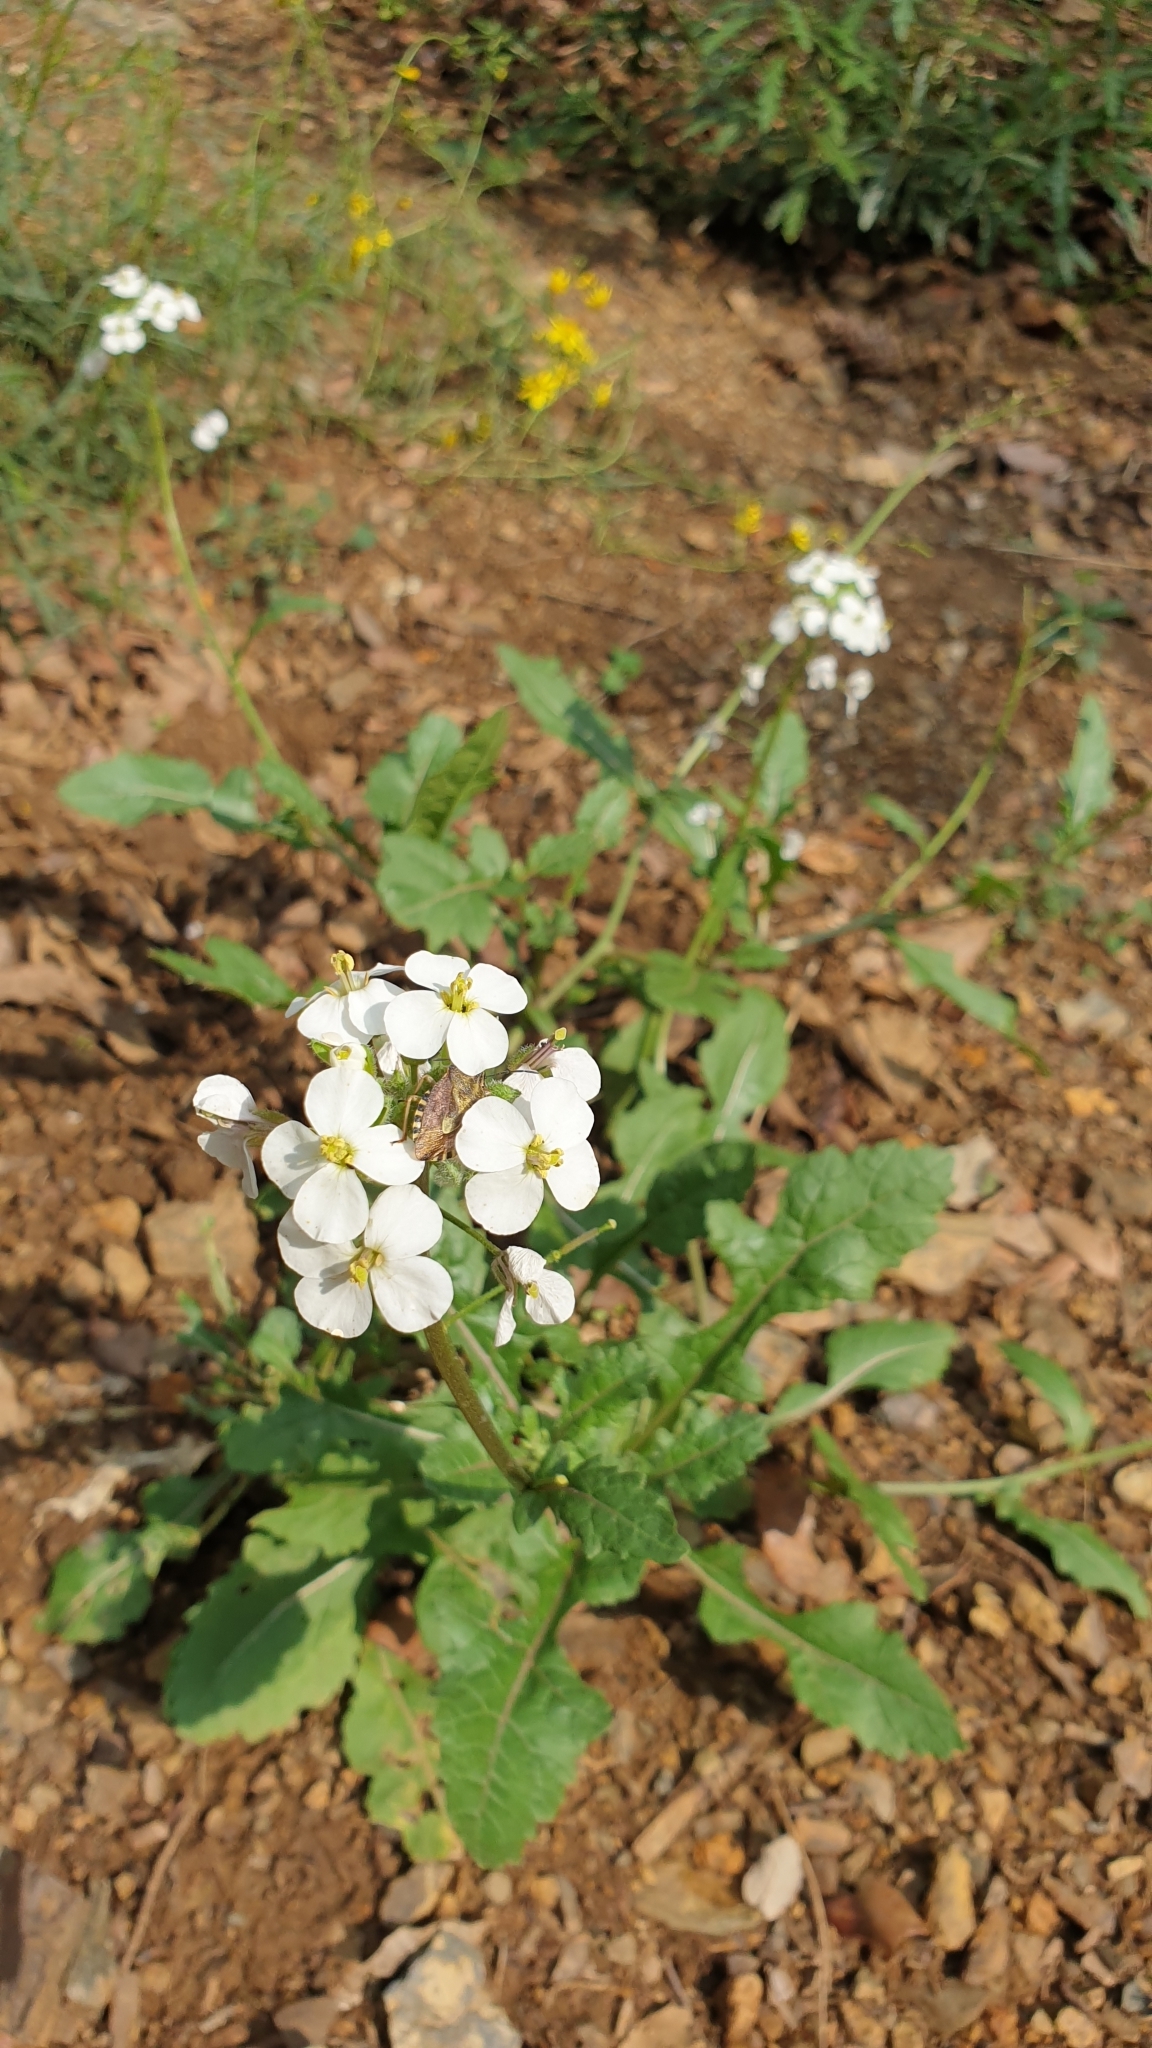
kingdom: Plantae
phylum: Tracheophyta
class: Magnoliopsida
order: Brassicales
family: Brassicaceae
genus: Diplotaxis
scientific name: Diplotaxis erucoides
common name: White rocket
